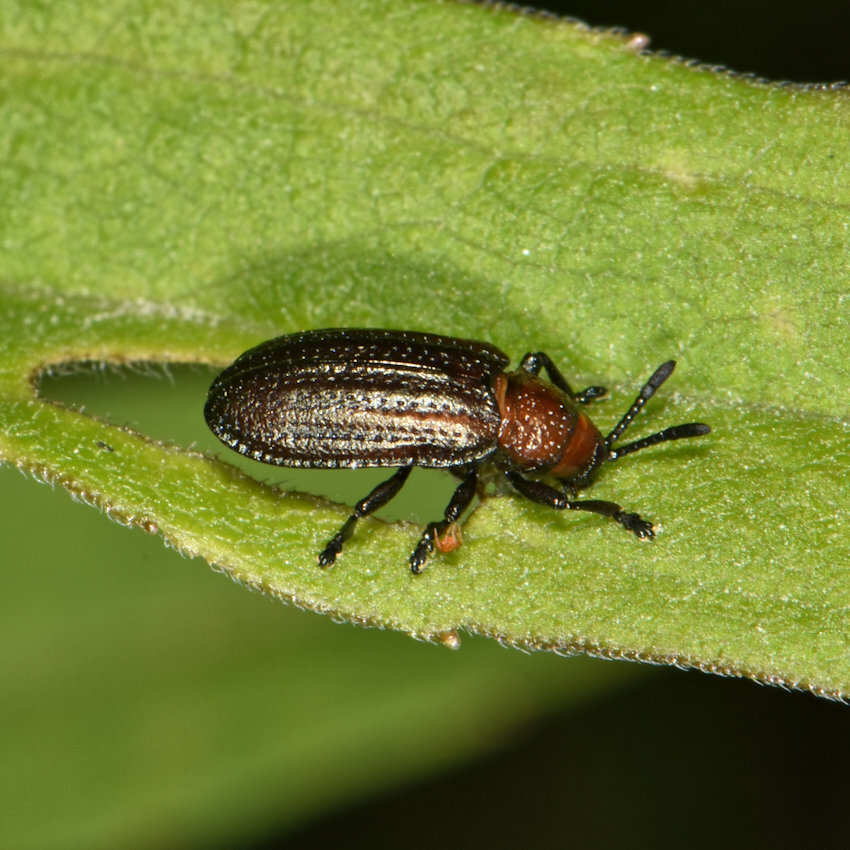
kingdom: Animalia
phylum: Arthropoda
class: Insecta
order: Coleoptera
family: Chrysomelidae
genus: Microrhopala
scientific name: Microrhopala vittata
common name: Goldenrod leaf miner beetle
